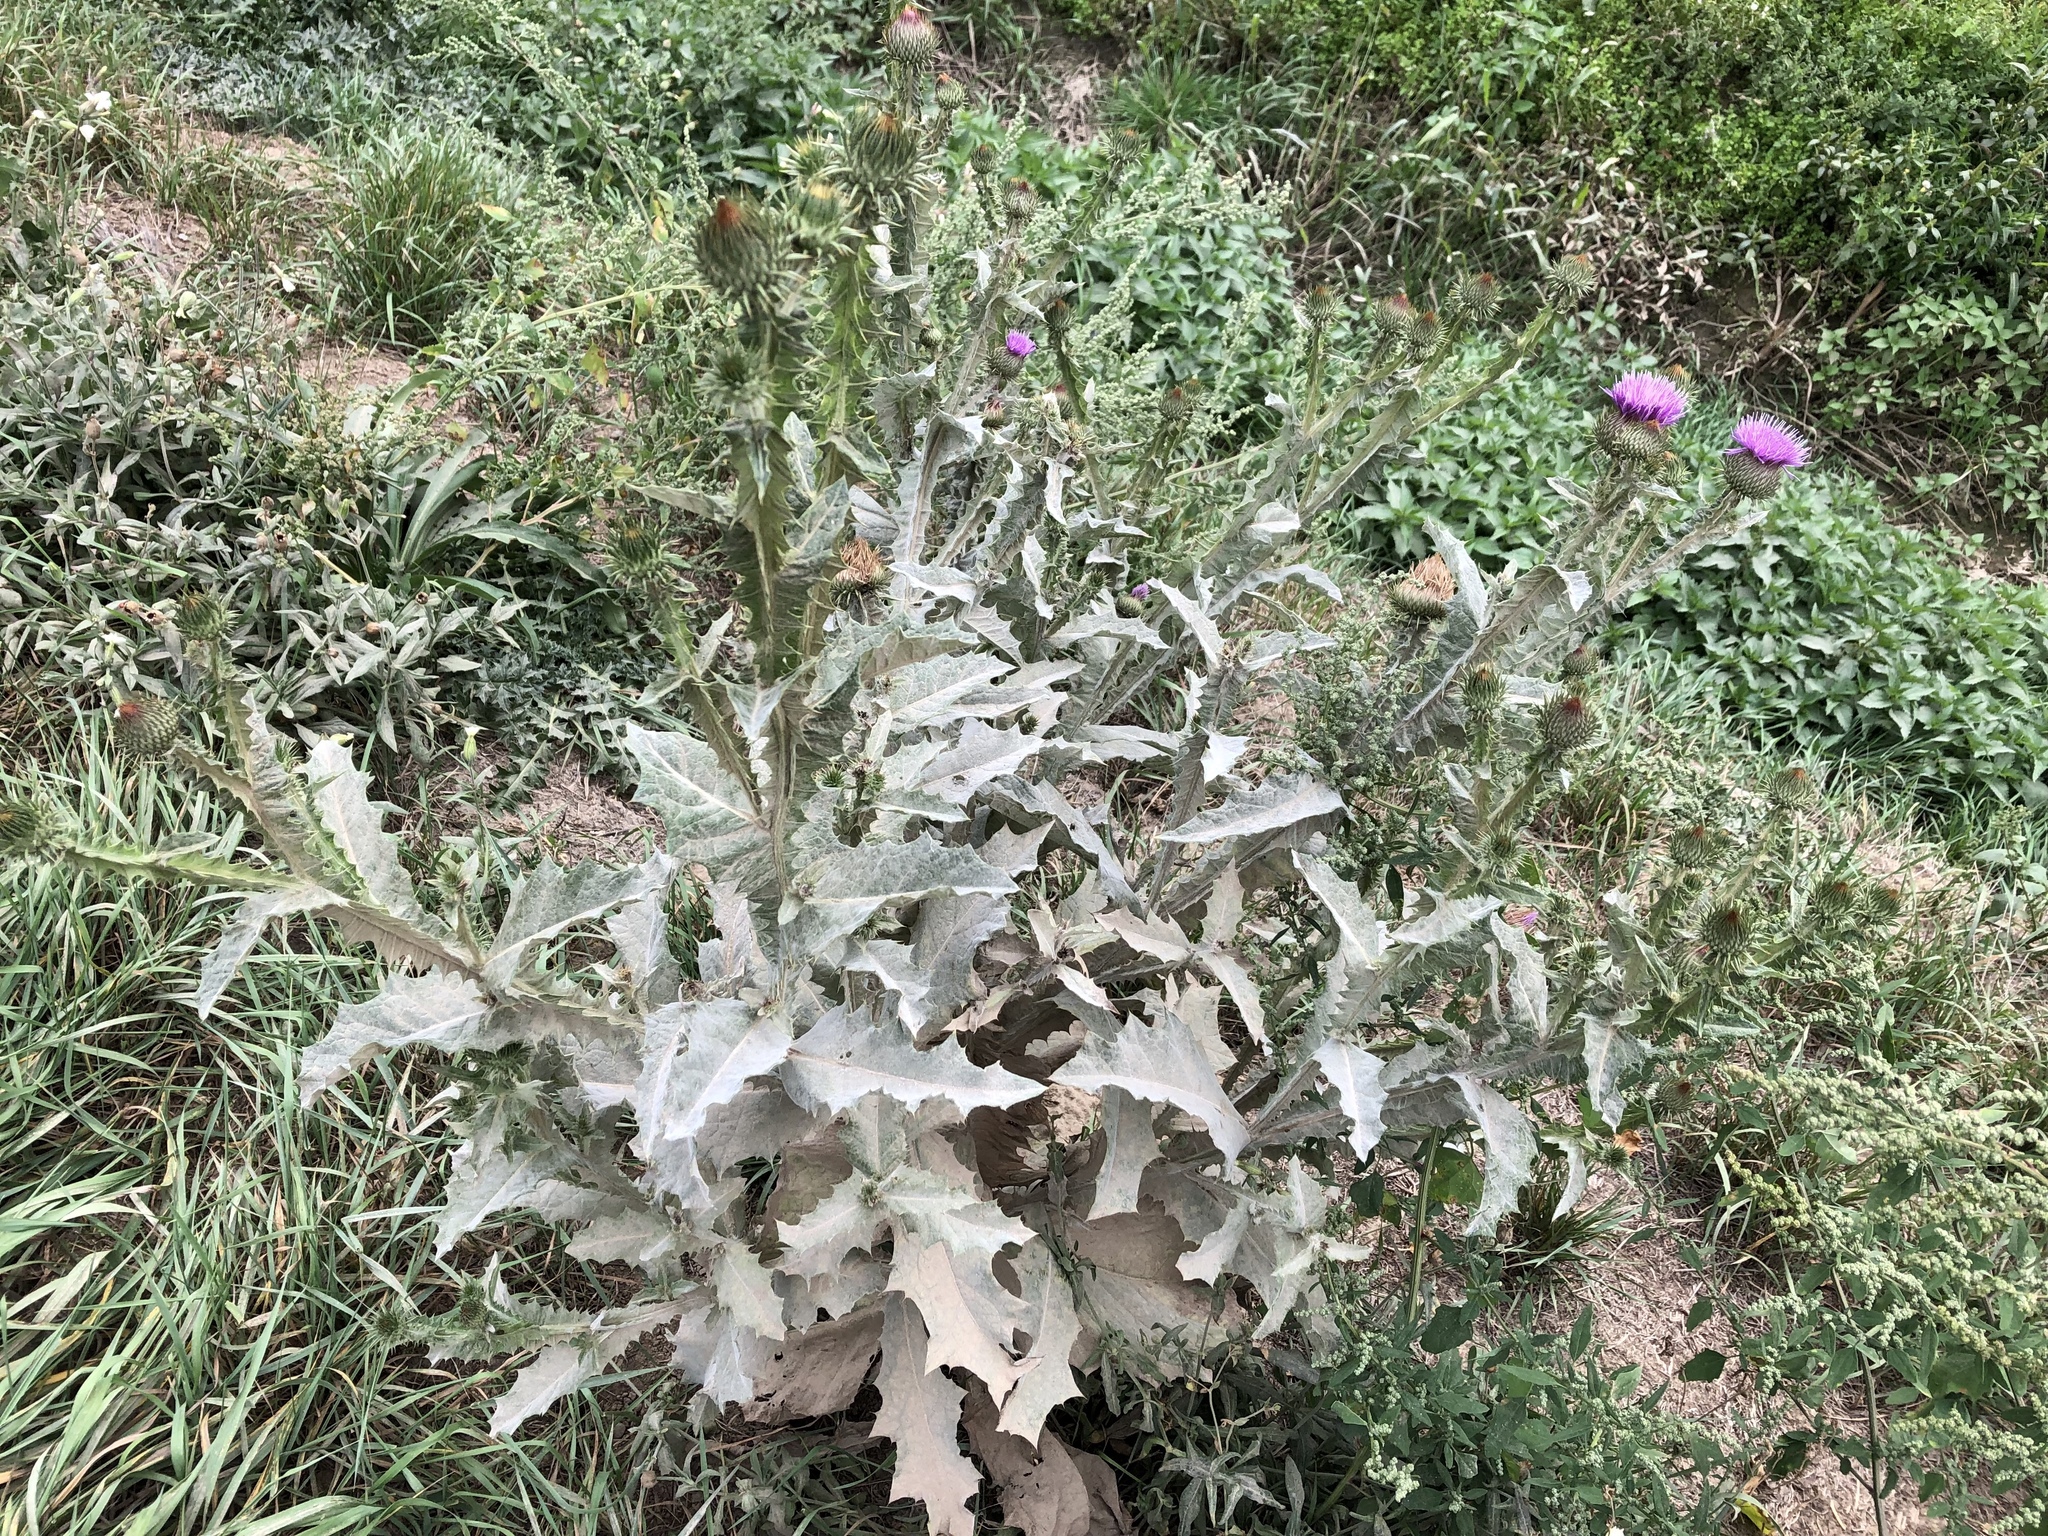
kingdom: Plantae
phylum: Tracheophyta
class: Magnoliopsida
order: Asterales
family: Asteraceae
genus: Onopordum
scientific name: Onopordum acanthium
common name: Scotch thistle
